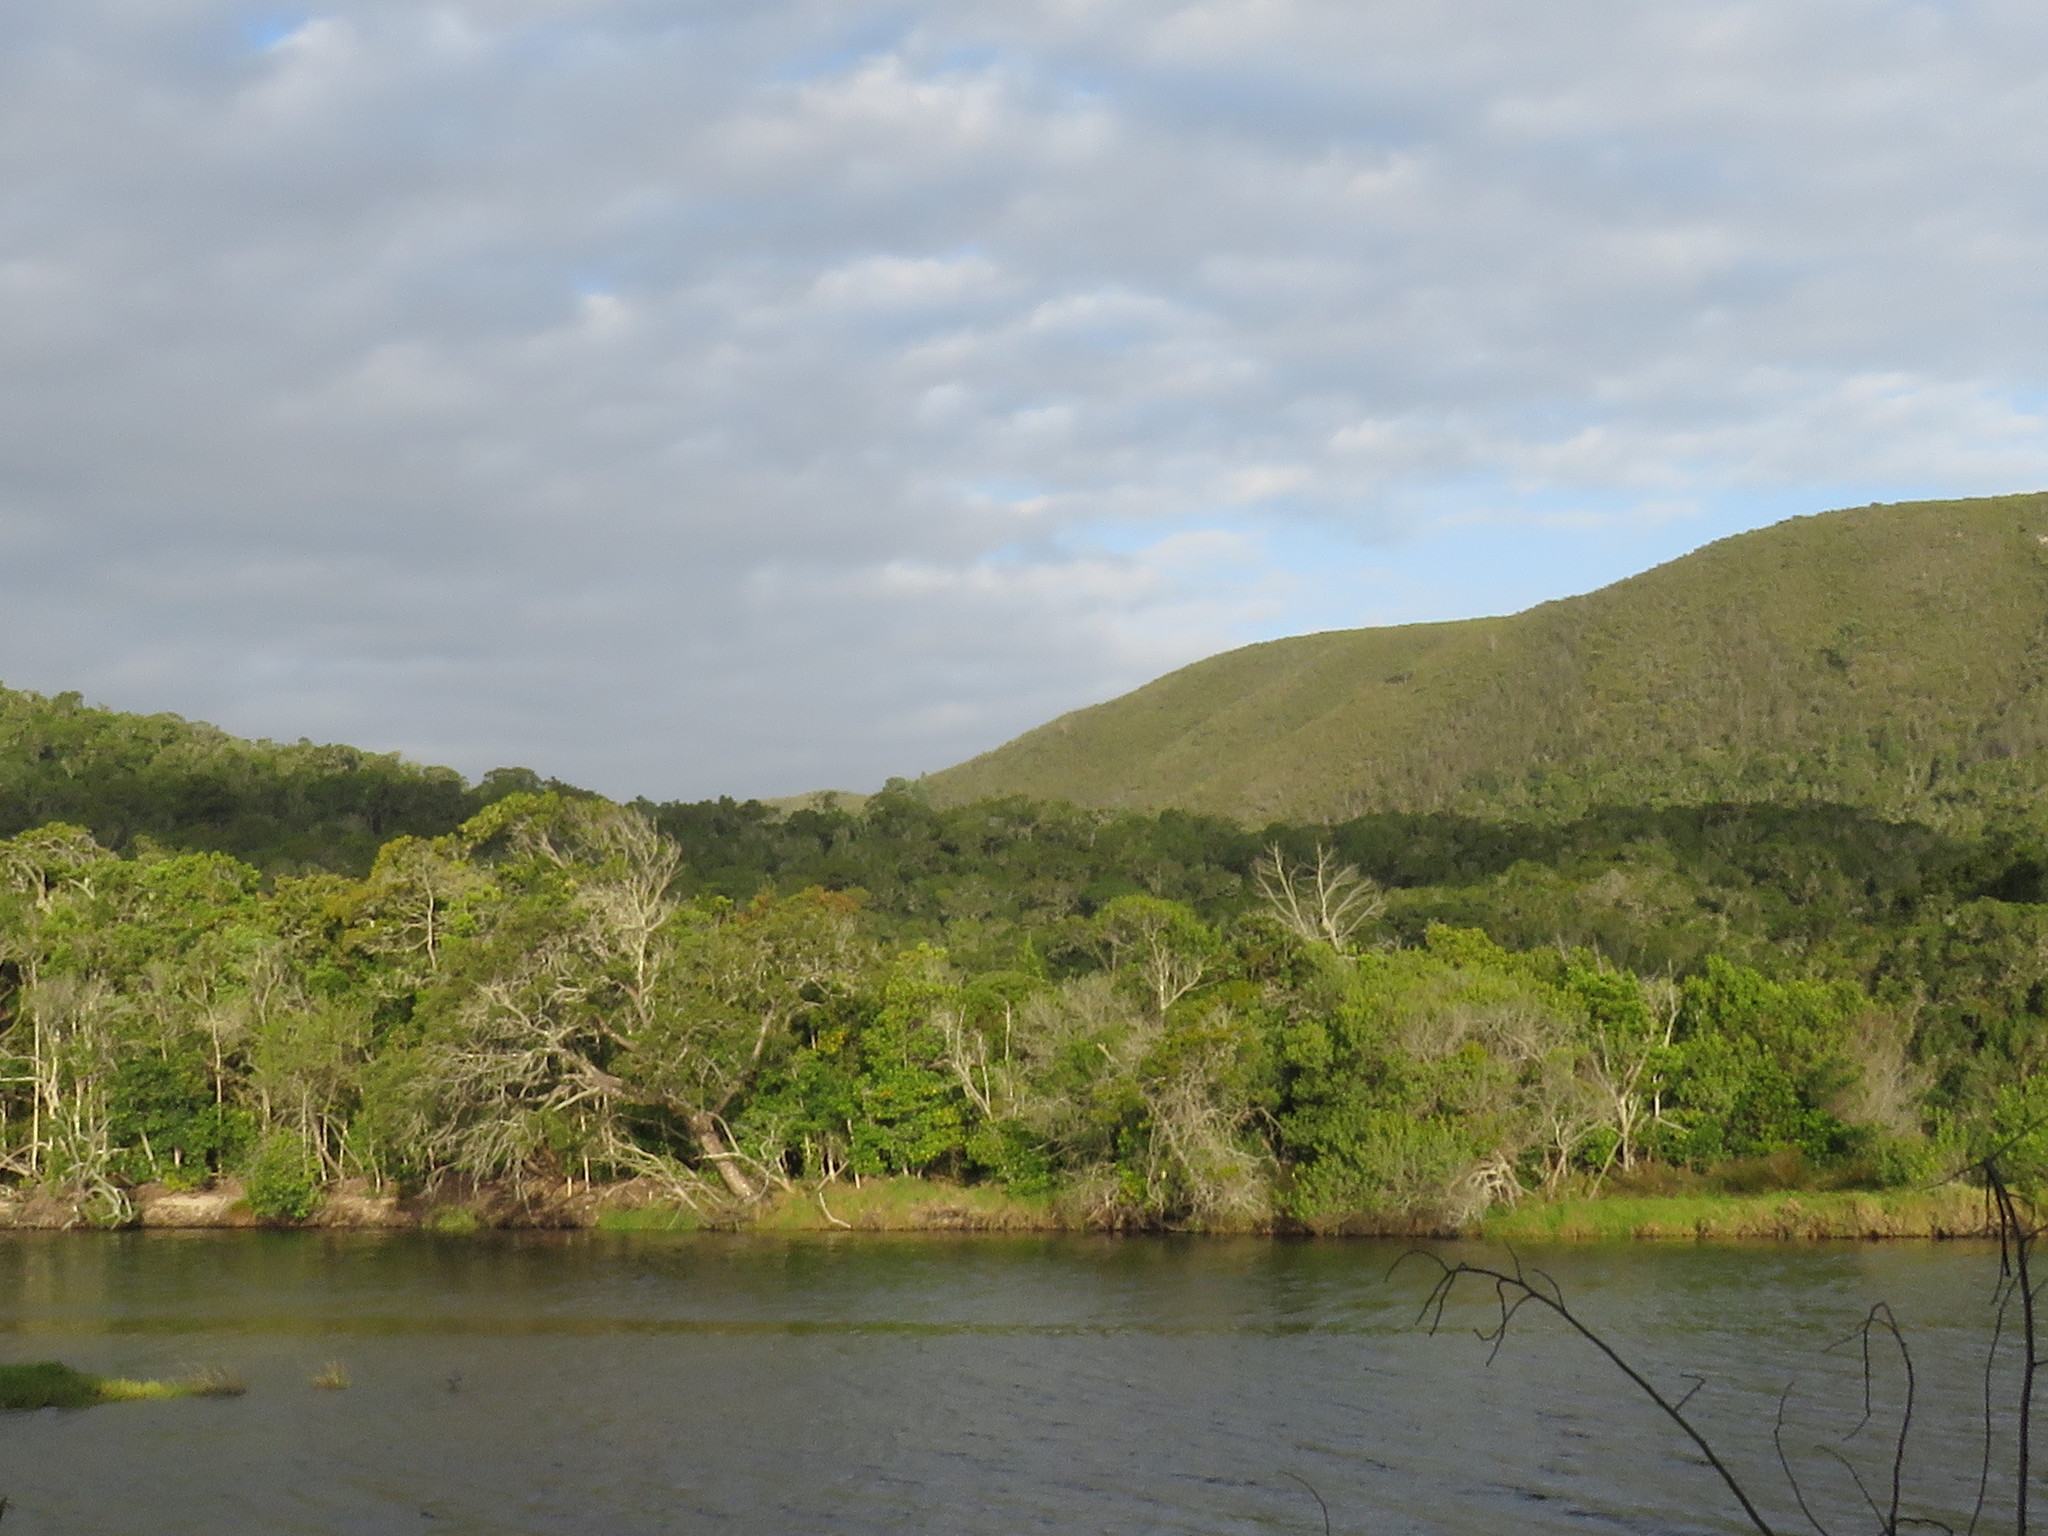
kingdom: Plantae
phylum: Tracheophyta
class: Pinopsida
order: Pinales
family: Pinaceae
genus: Pinus
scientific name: Pinus pinaster
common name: Maritime pine
